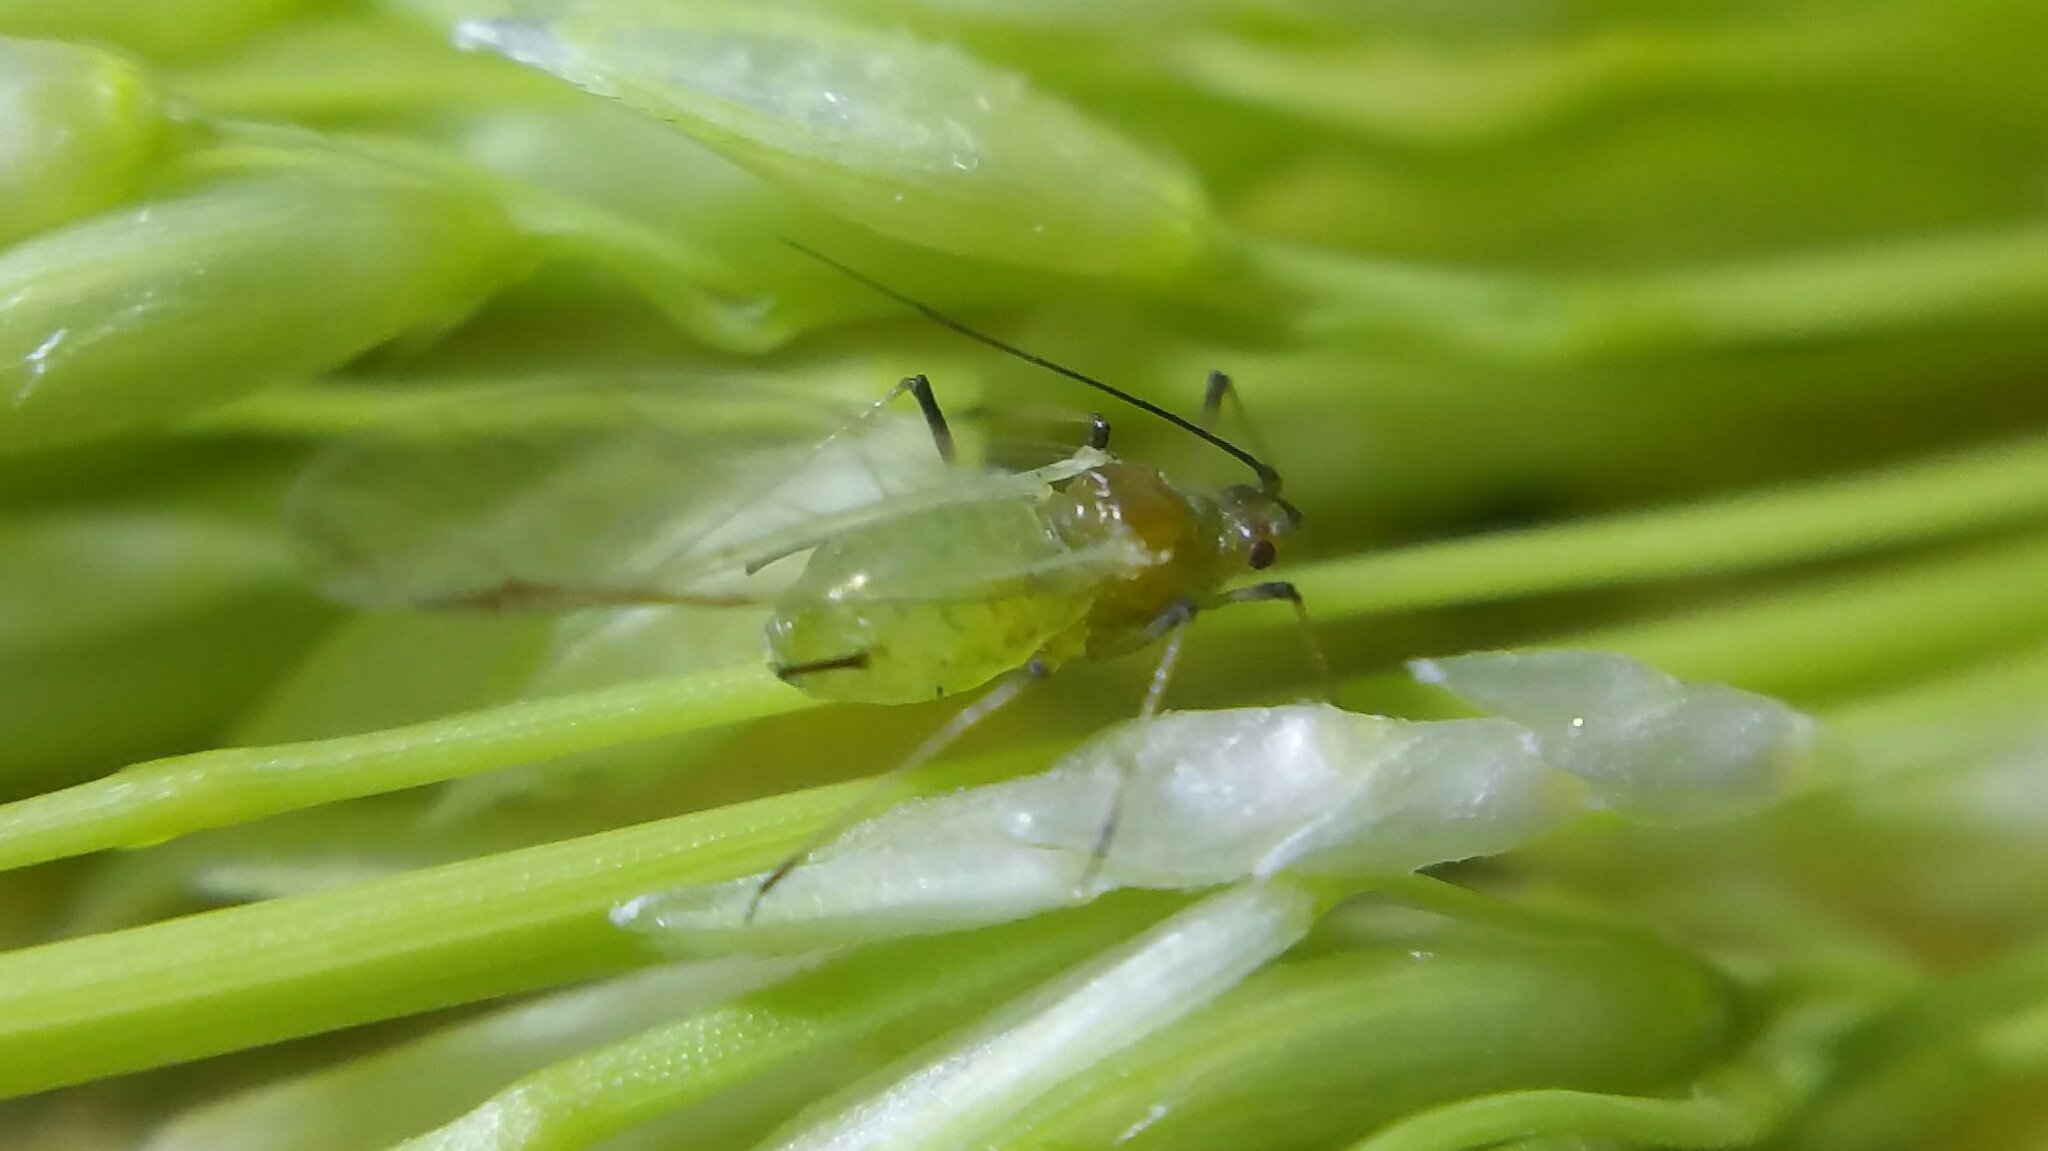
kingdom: Animalia
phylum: Arthropoda
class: Insecta
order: Hemiptera
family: Aphididae
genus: Sitobion
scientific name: Sitobion avenae
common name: English grain aphid
